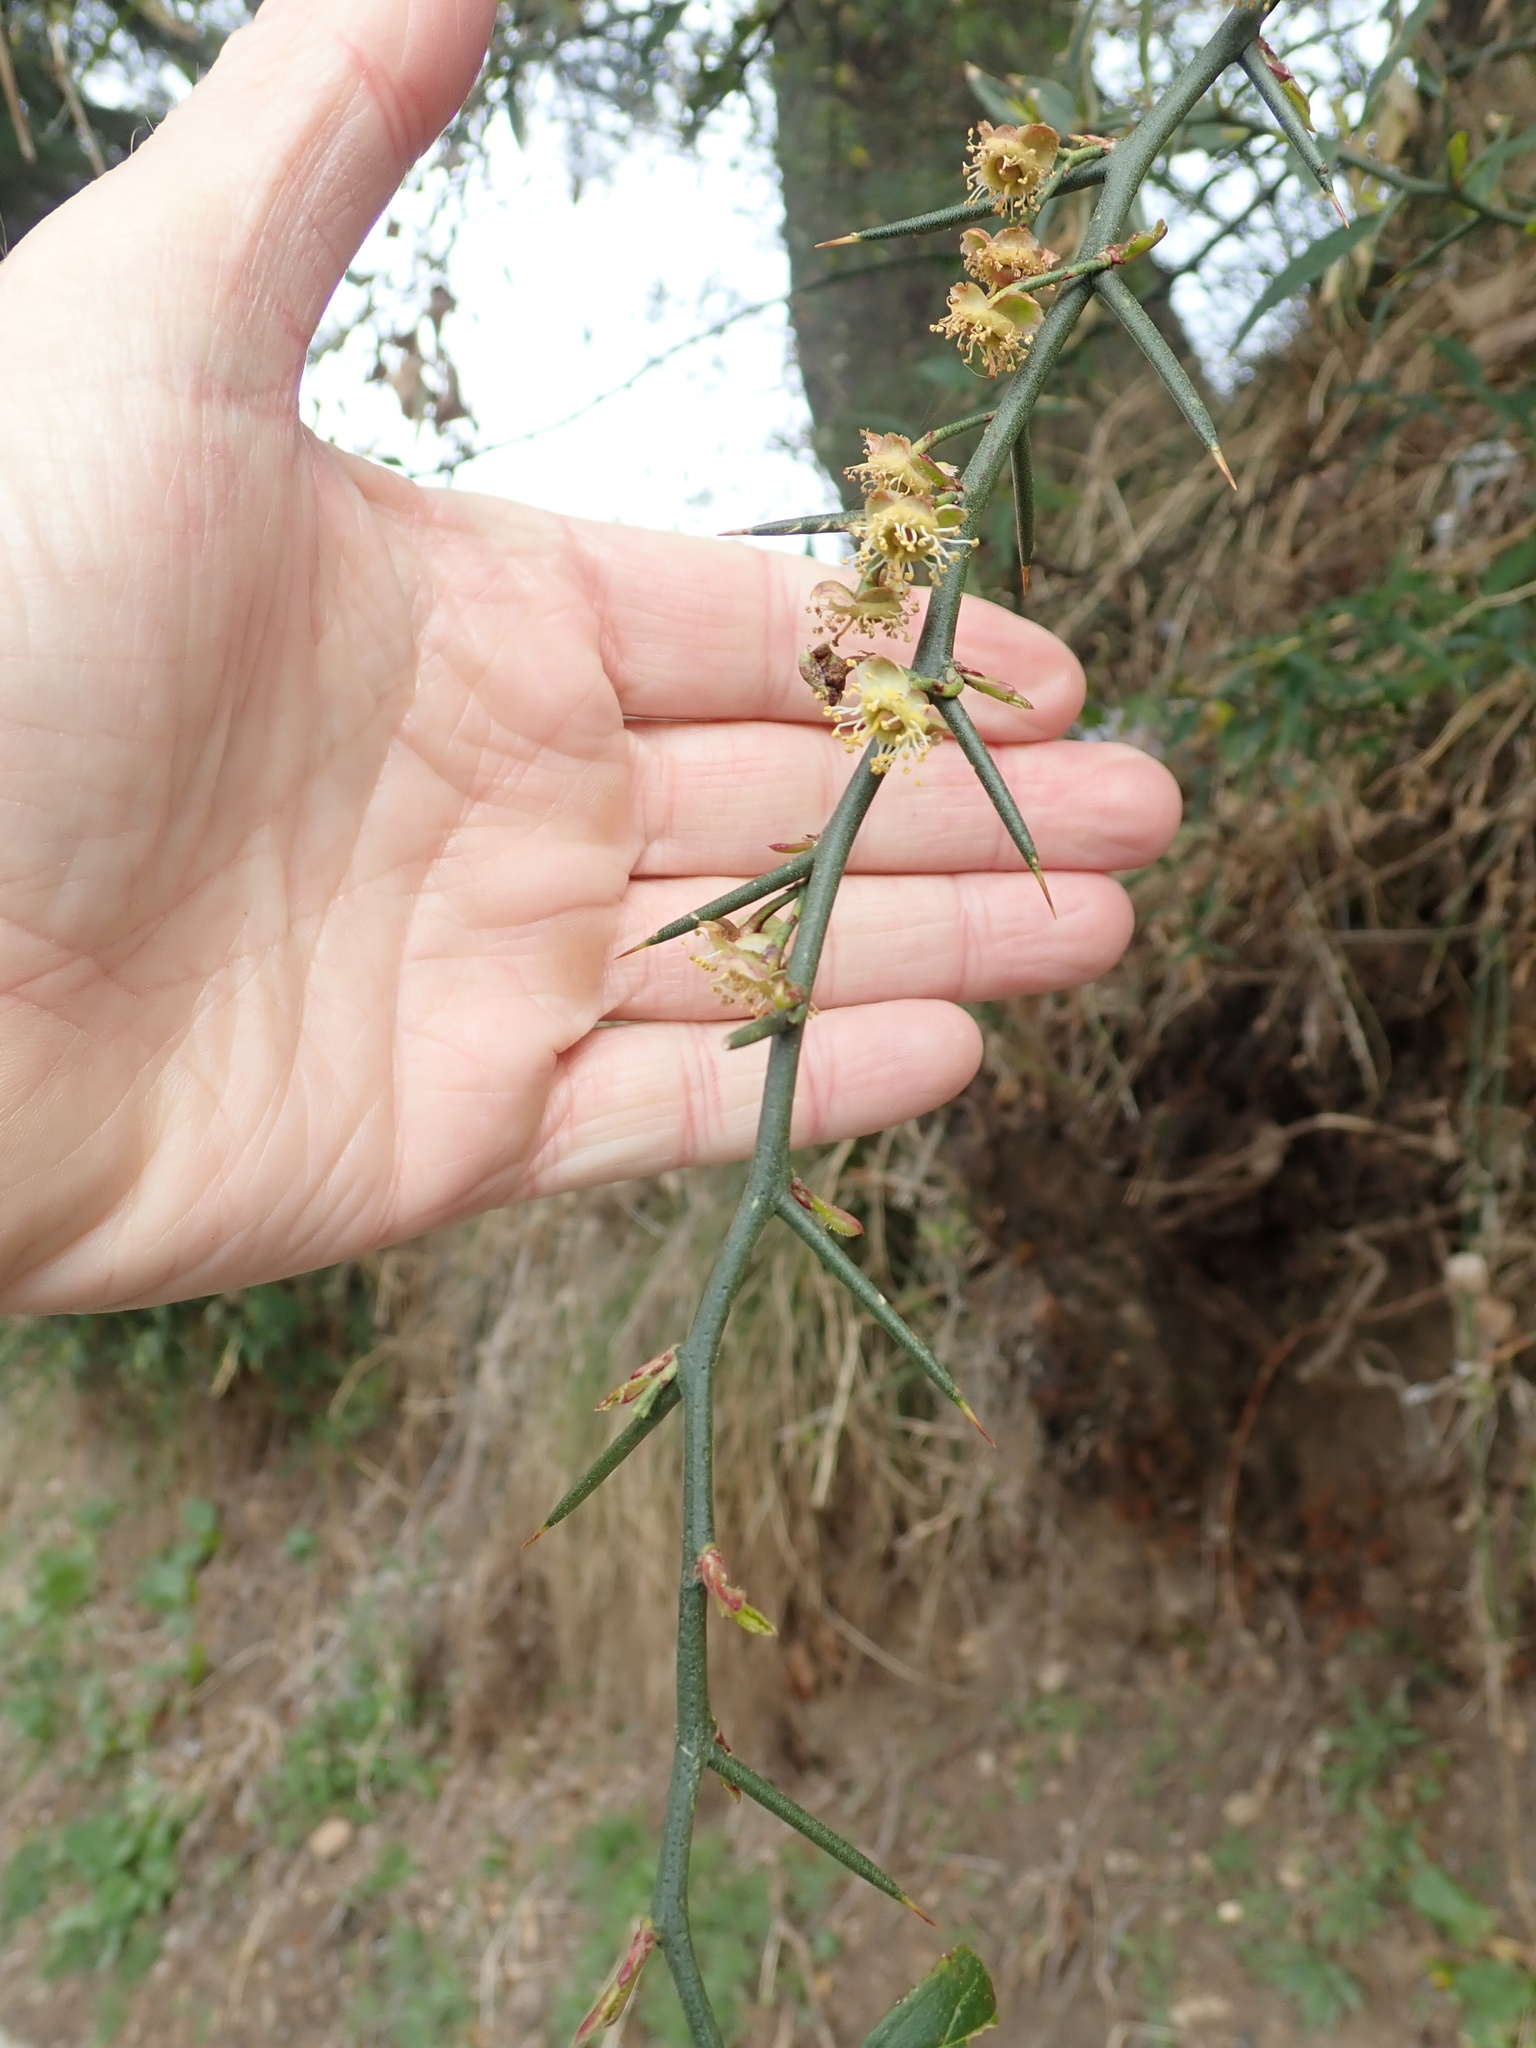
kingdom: Plantae
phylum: Tracheophyta
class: Magnoliopsida
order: Rosales
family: Rosaceae
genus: Prinsepia
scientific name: Prinsepia utilis
